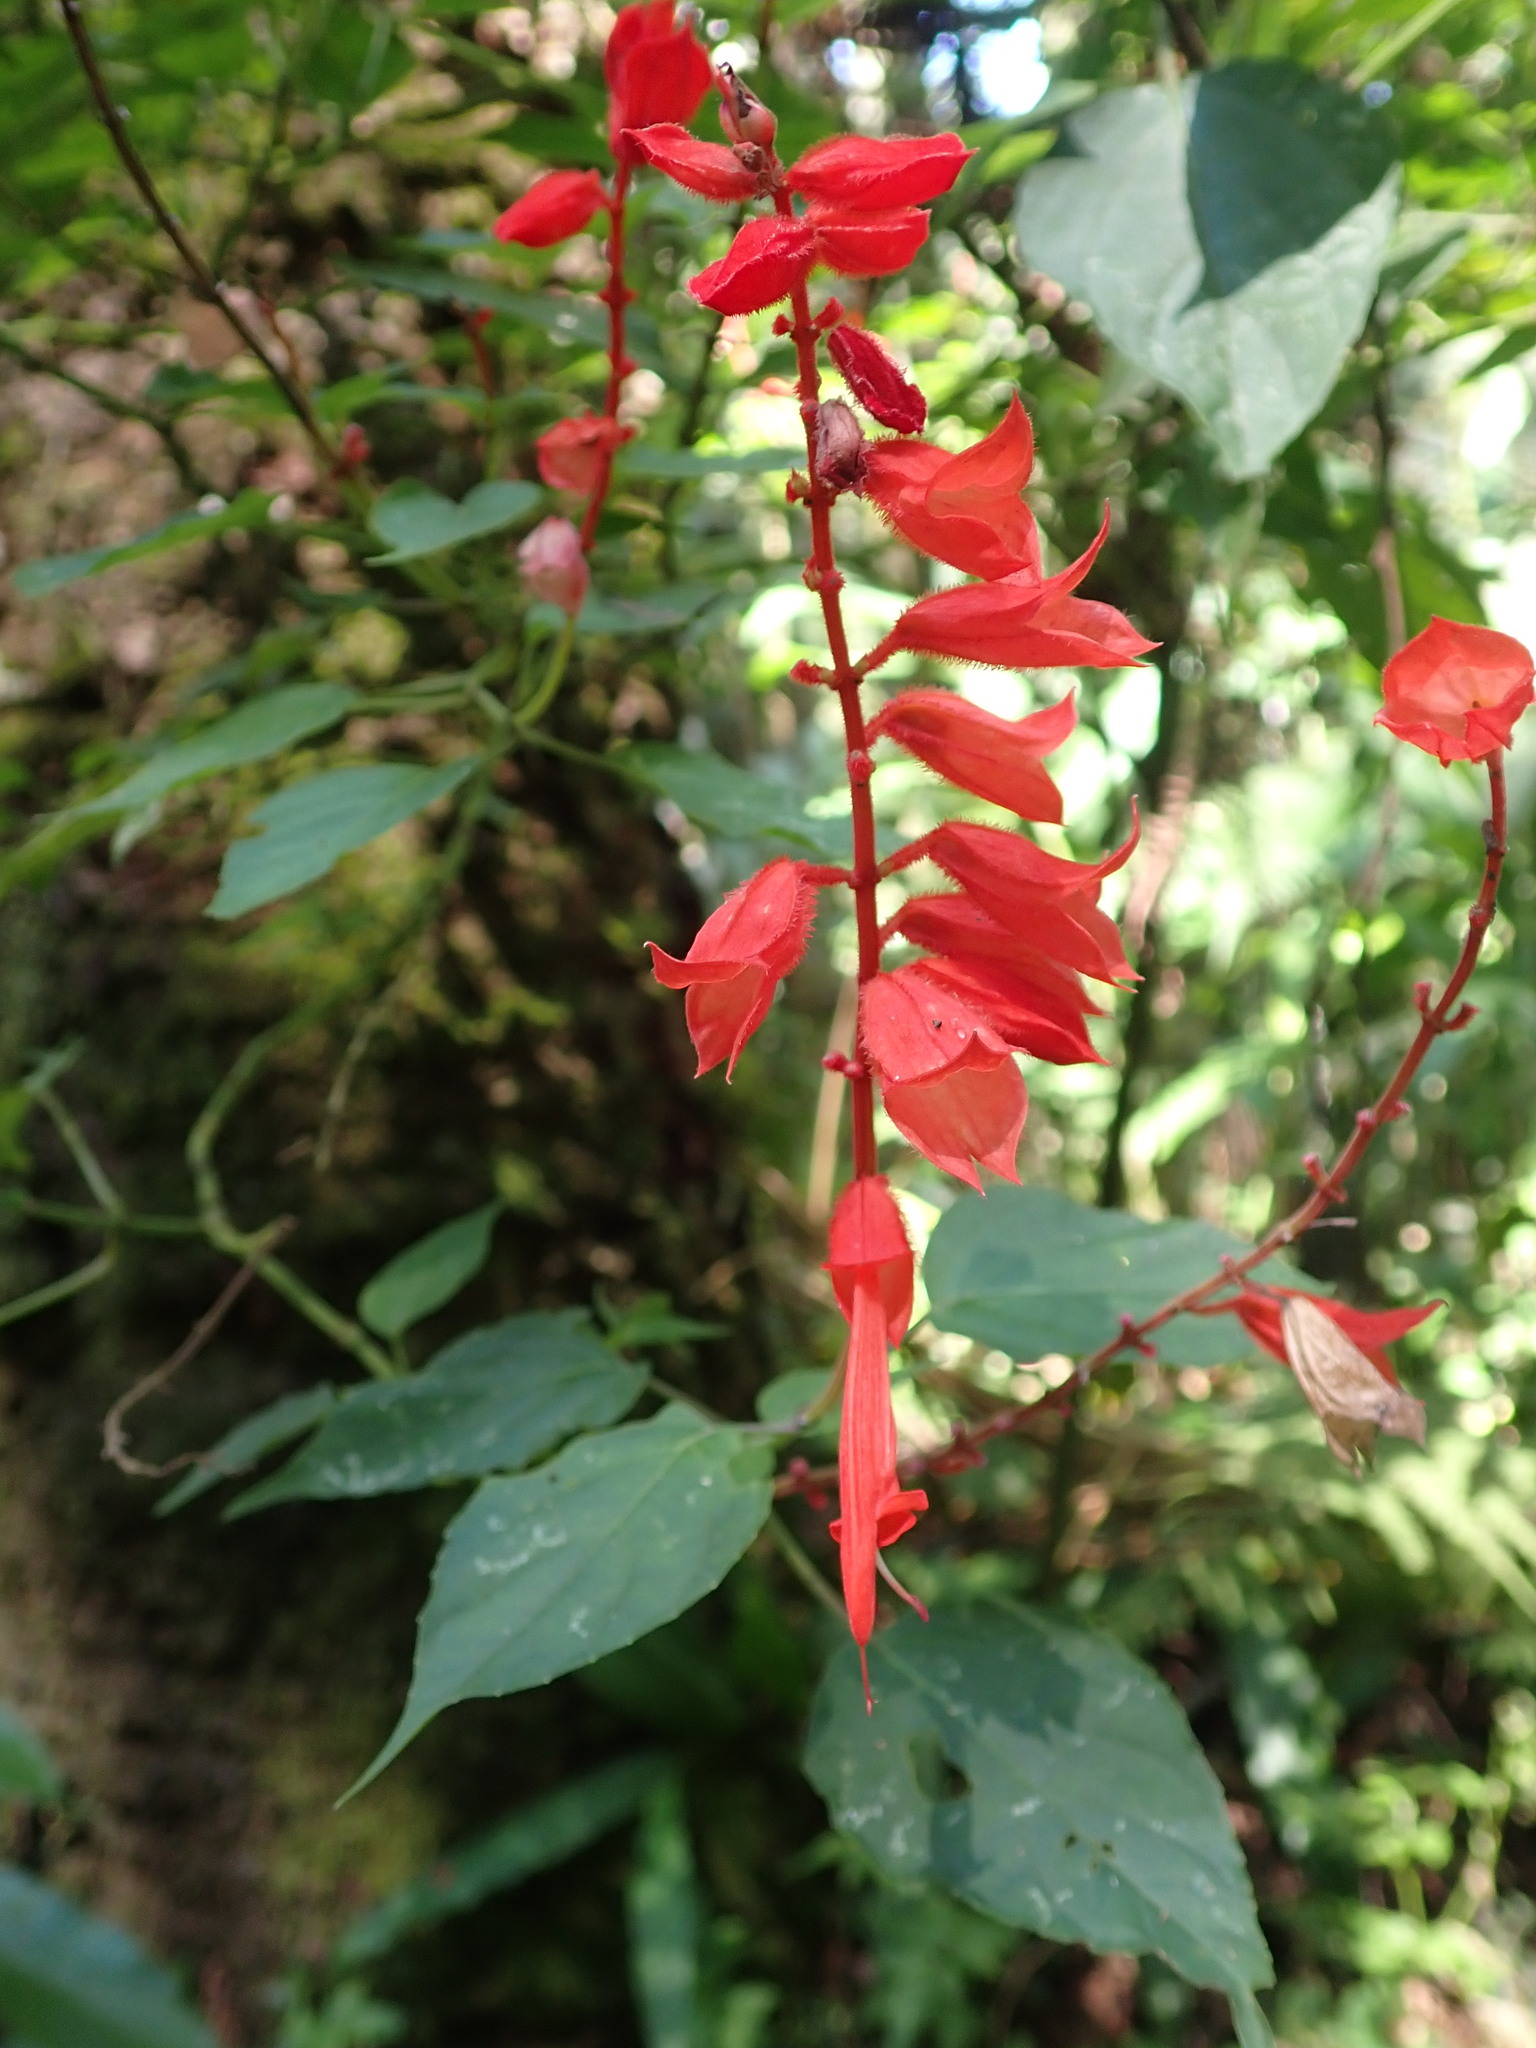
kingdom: Plantae
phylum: Tracheophyta
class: Magnoliopsida
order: Lamiales
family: Lamiaceae
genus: Salvia
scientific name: Salvia splendens
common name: Scarlet sage
